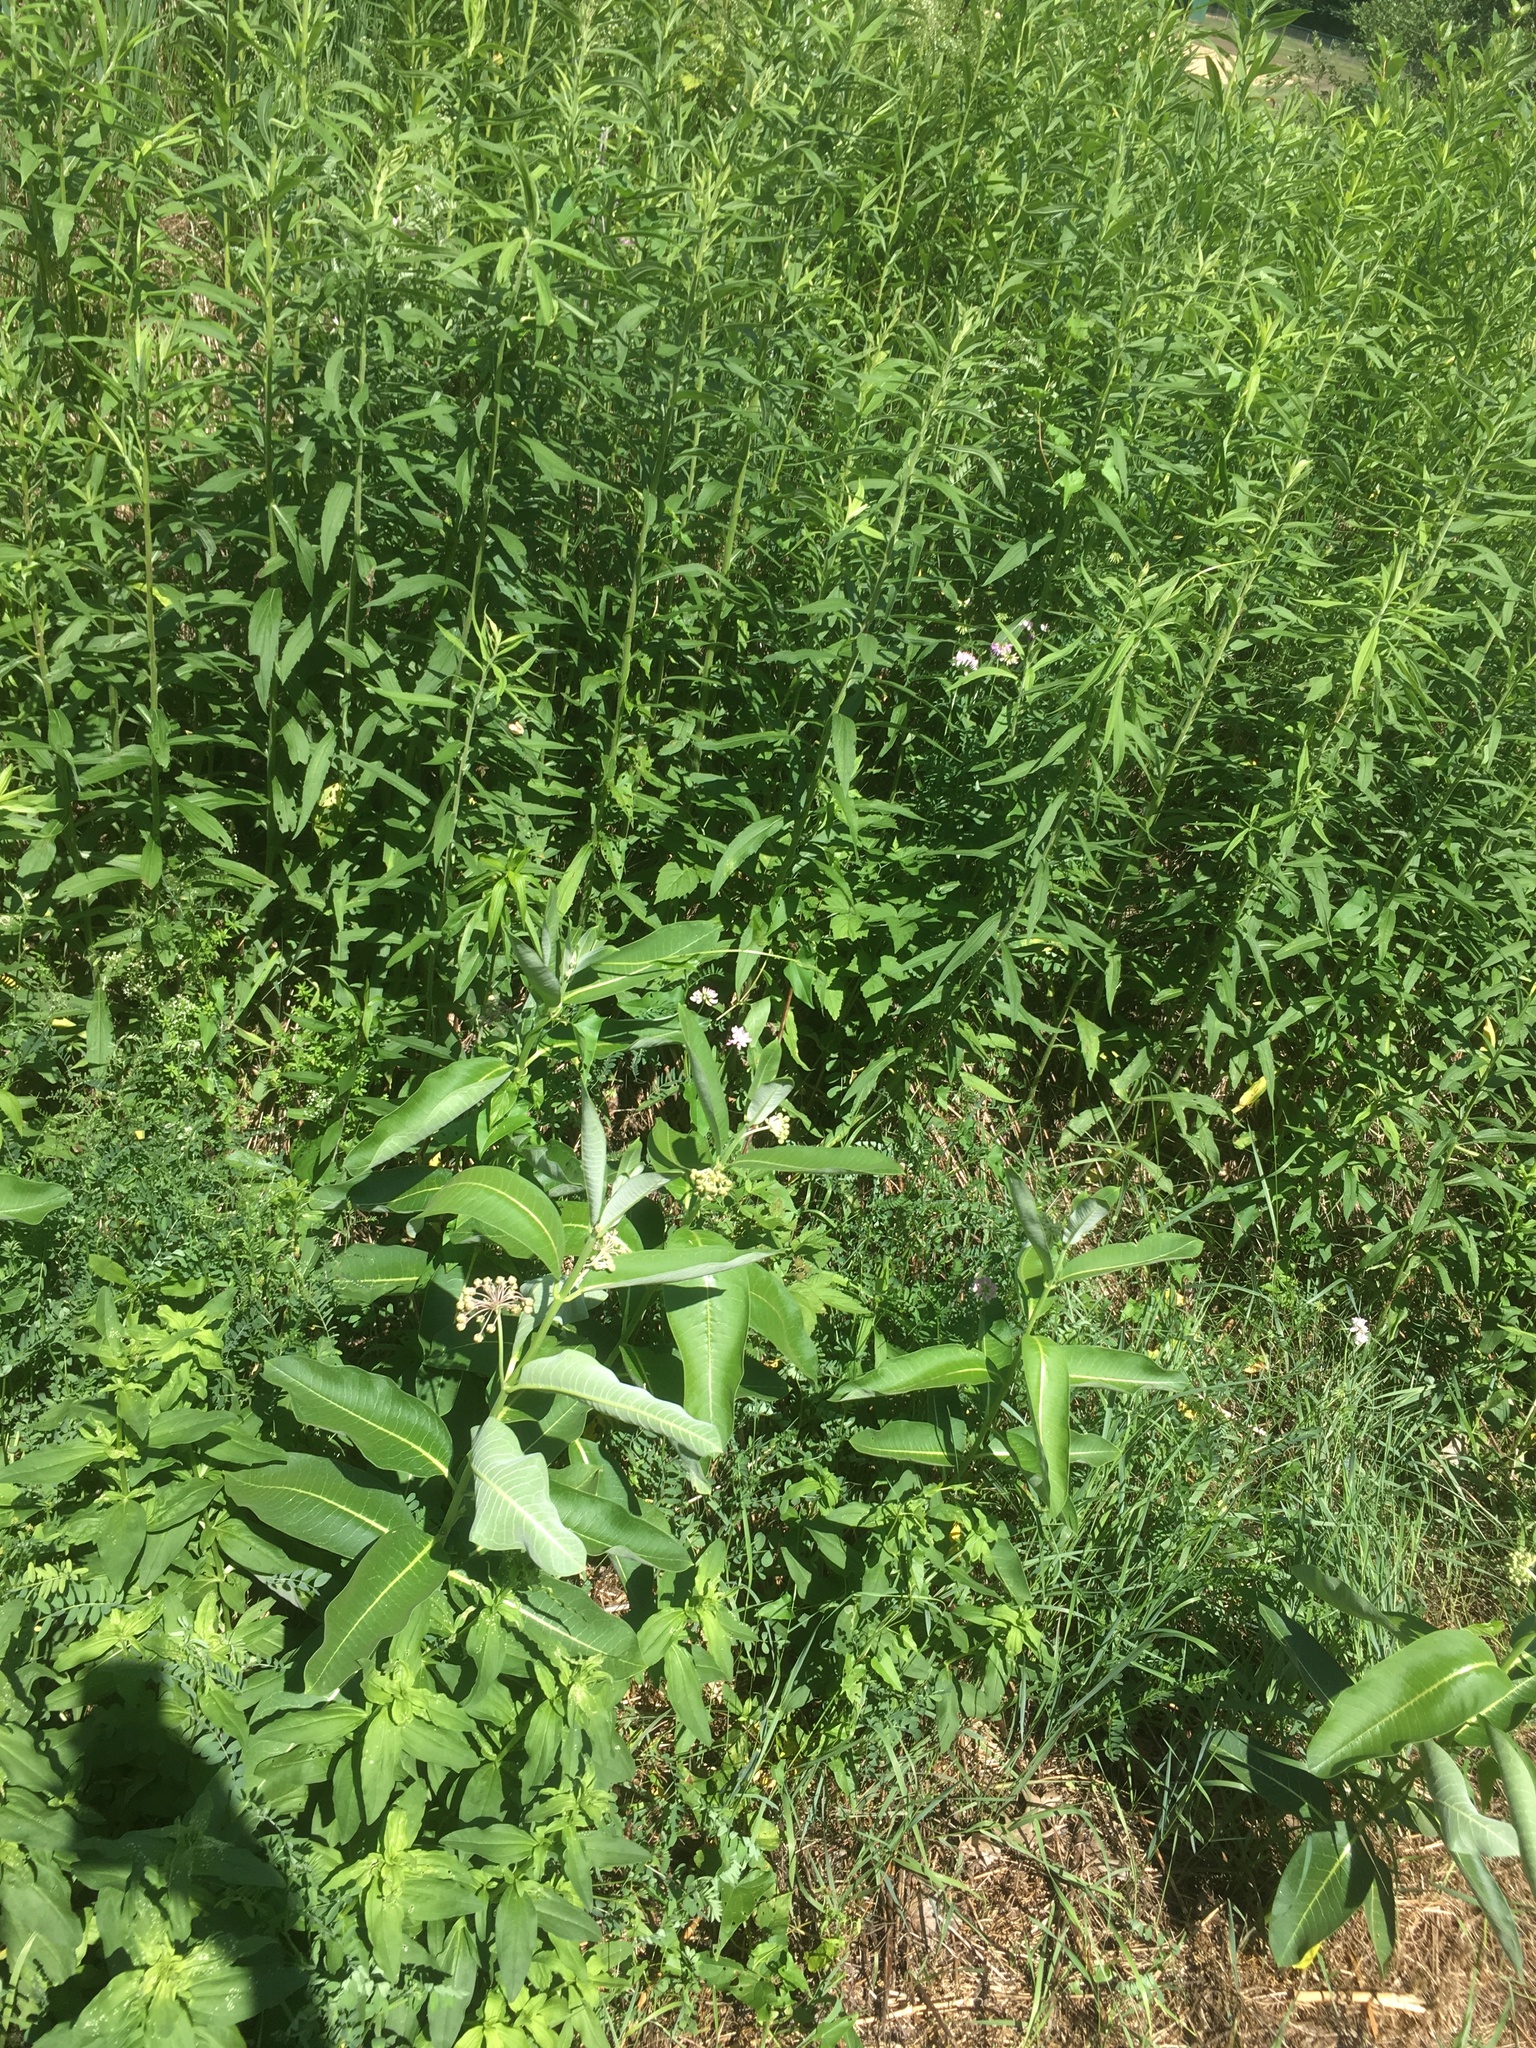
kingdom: Plantae
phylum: Tracheophyta
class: Magnoliopsida
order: Gentianales
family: Apocynaceae
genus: Asclepias
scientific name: Asclepias syriaca
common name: Common milkweed
